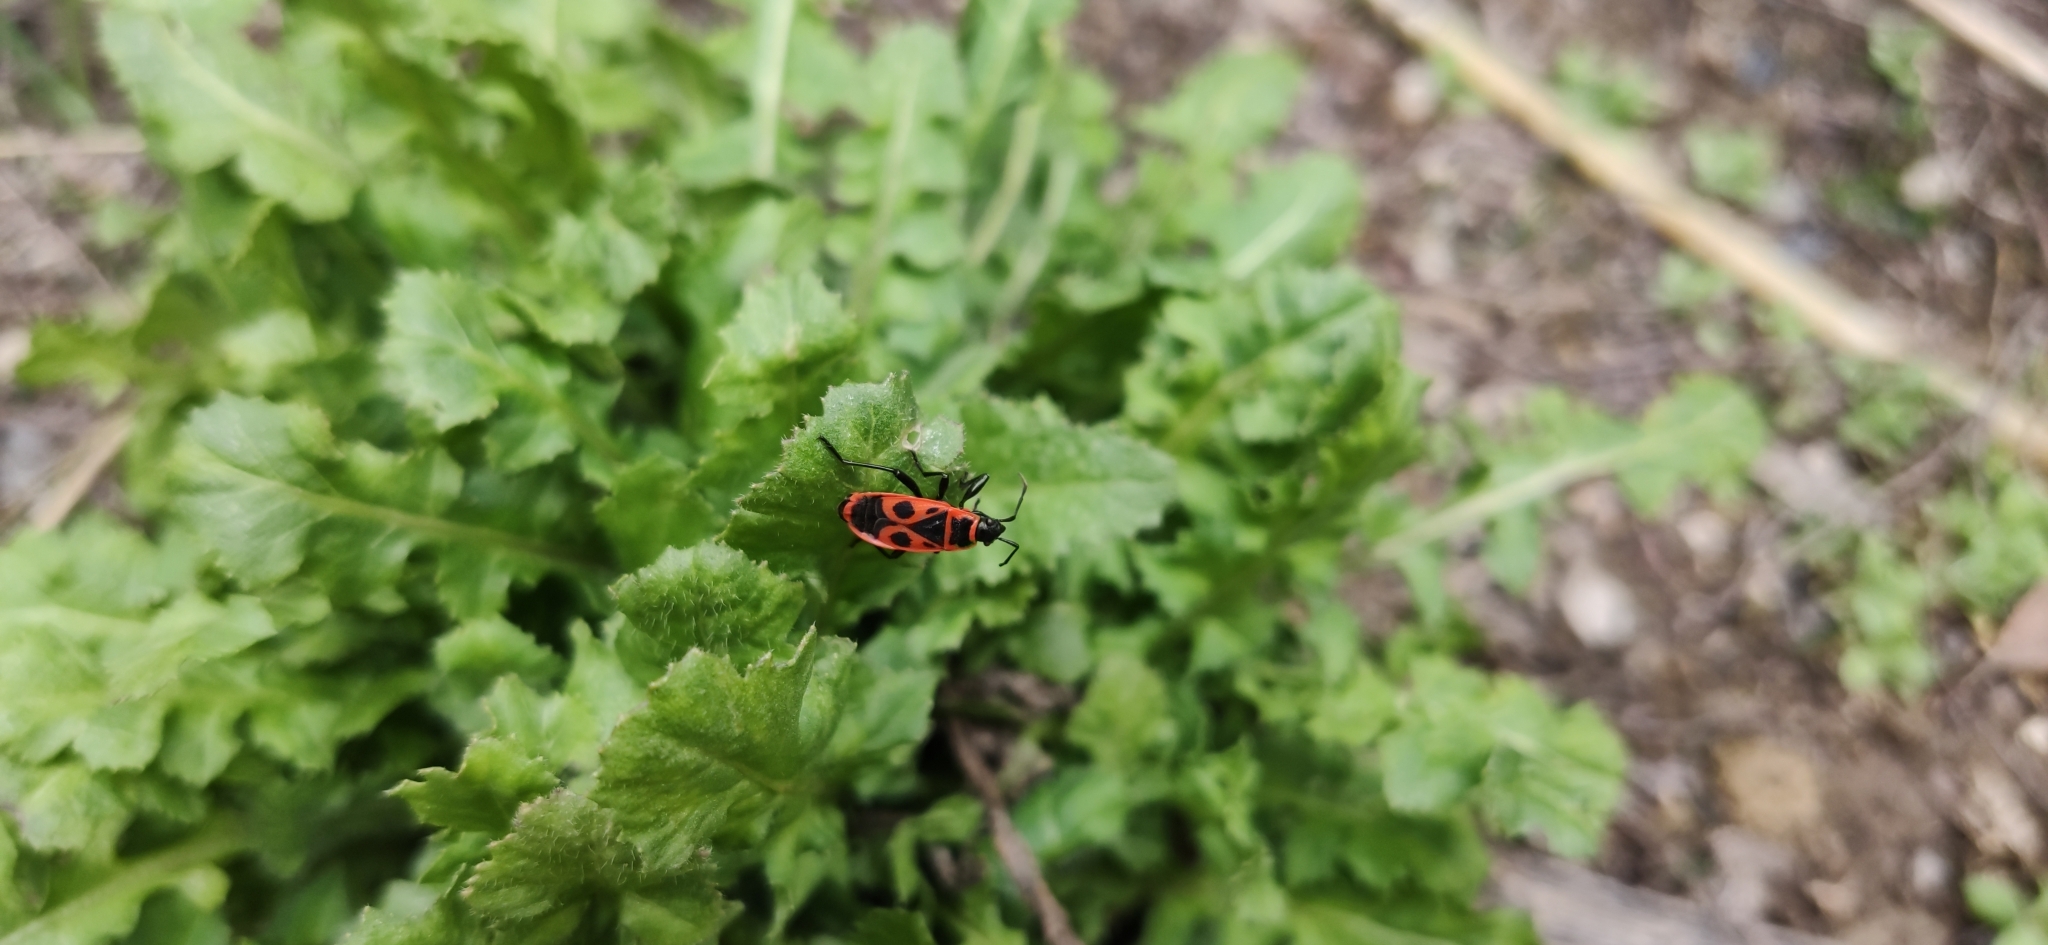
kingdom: Animalia
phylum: Arthropoda
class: Insecta
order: Hemiptera
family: Pyrrhocoridae
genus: Pyrrhocoris
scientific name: Pyrrhocoris apterus
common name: Firebug
